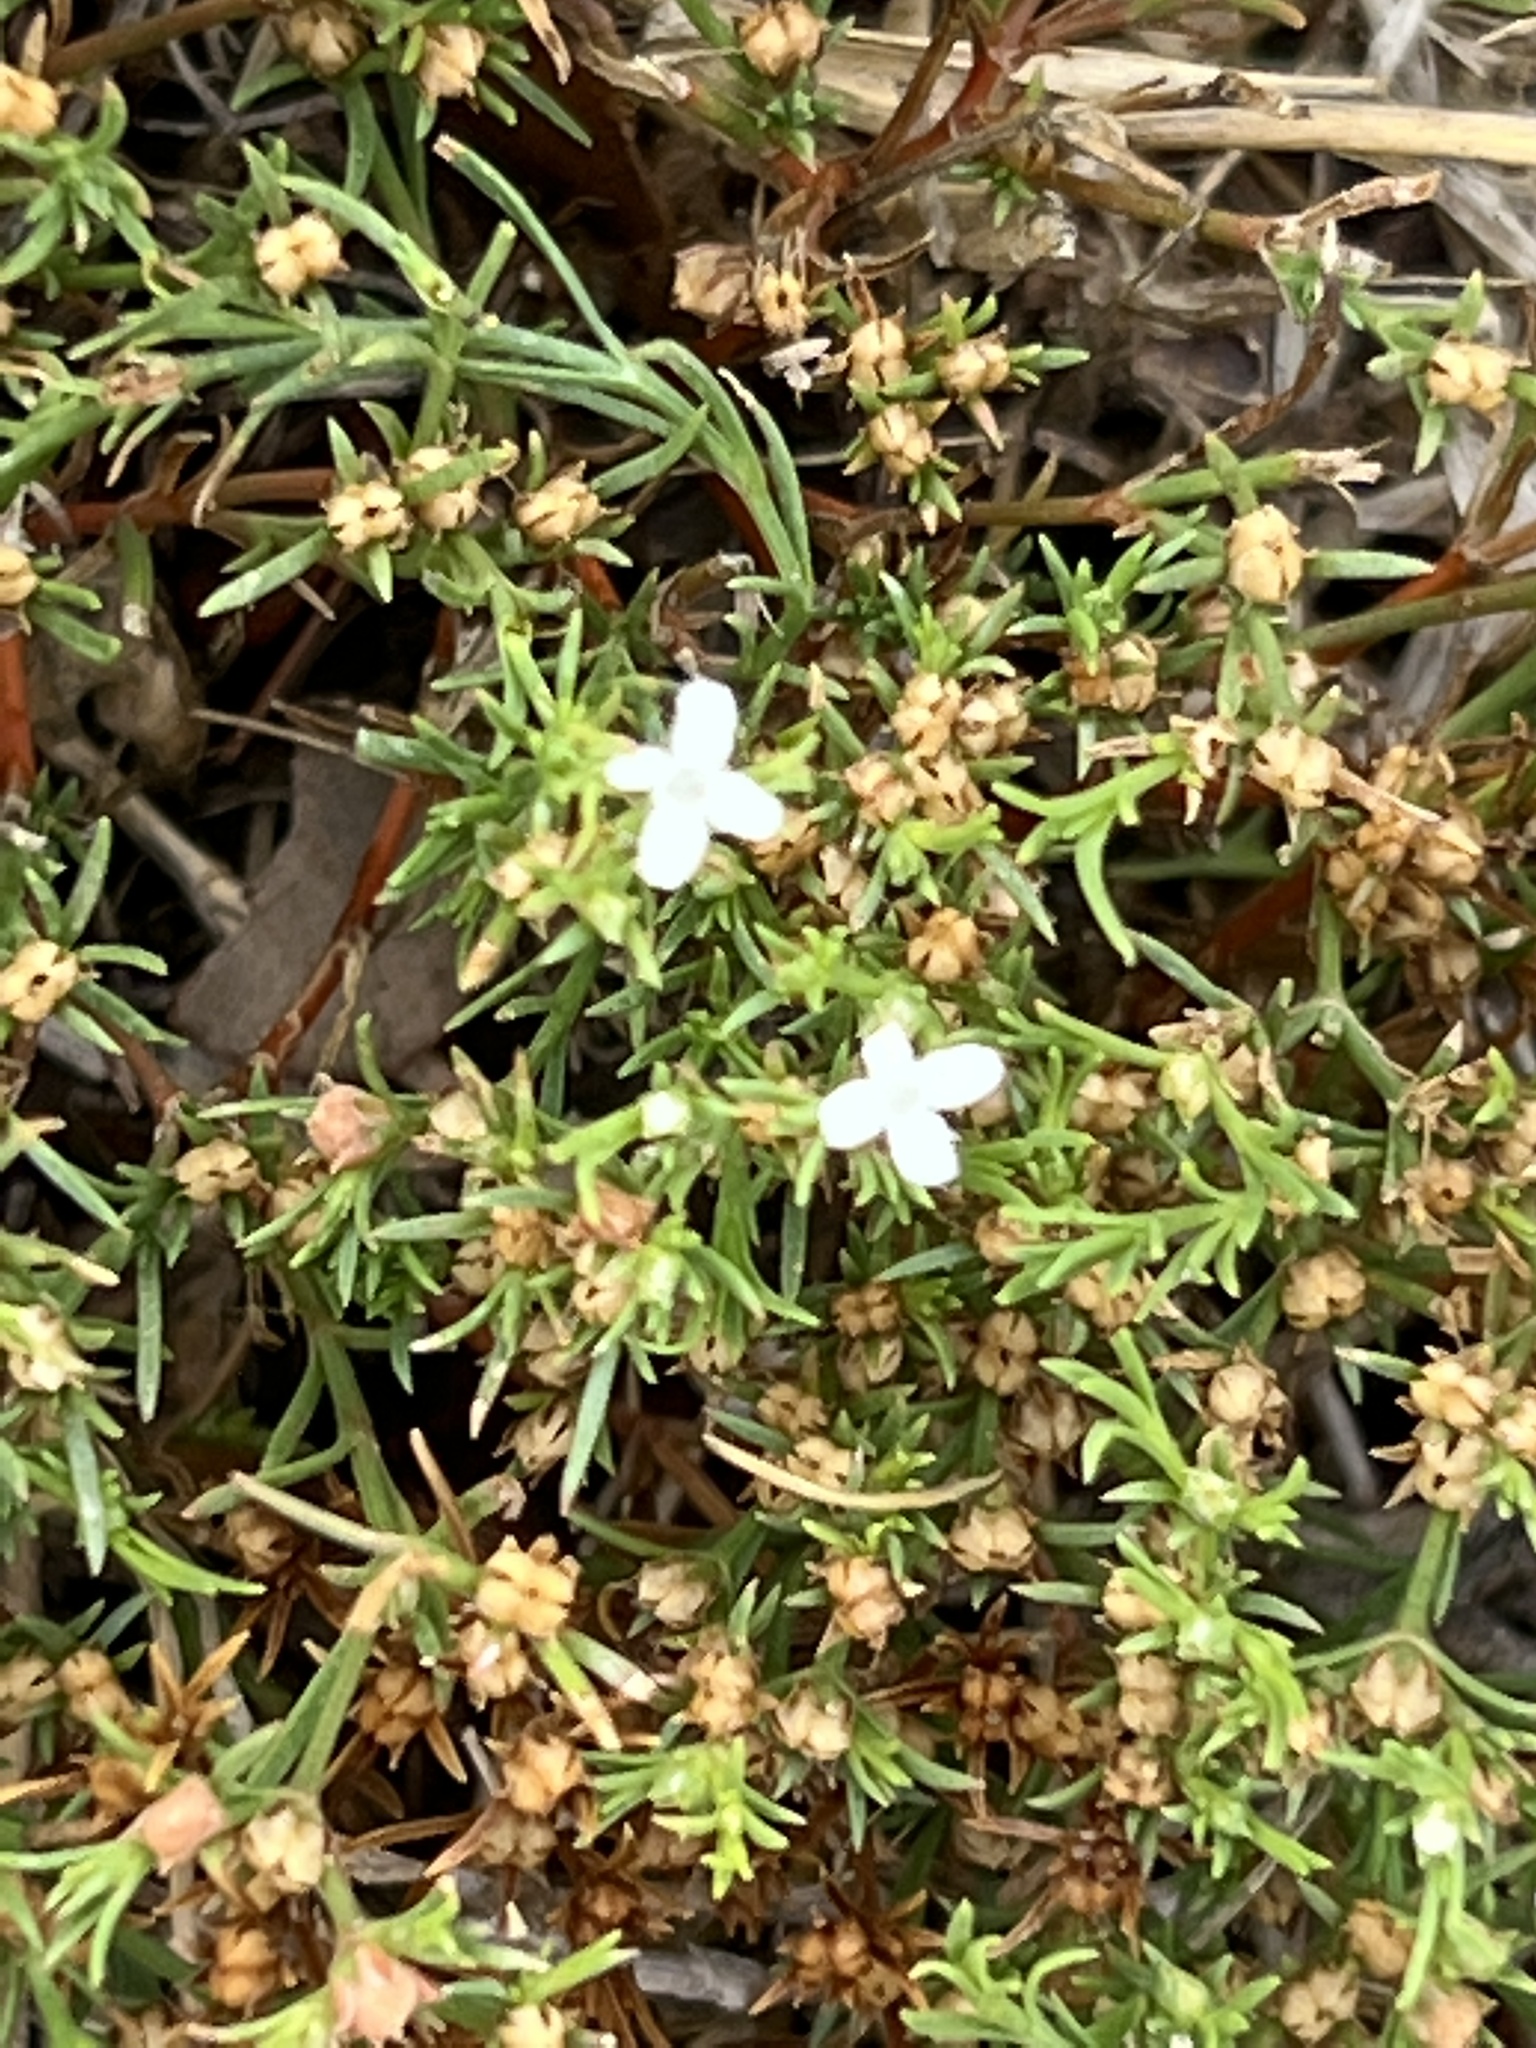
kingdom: Plantae
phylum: Tracheophyta
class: Magnoliopsida
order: Lamiales
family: Tetrachondraceae
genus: Polypremum
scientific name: Polypremum procumbens
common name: Juniper-leaf
